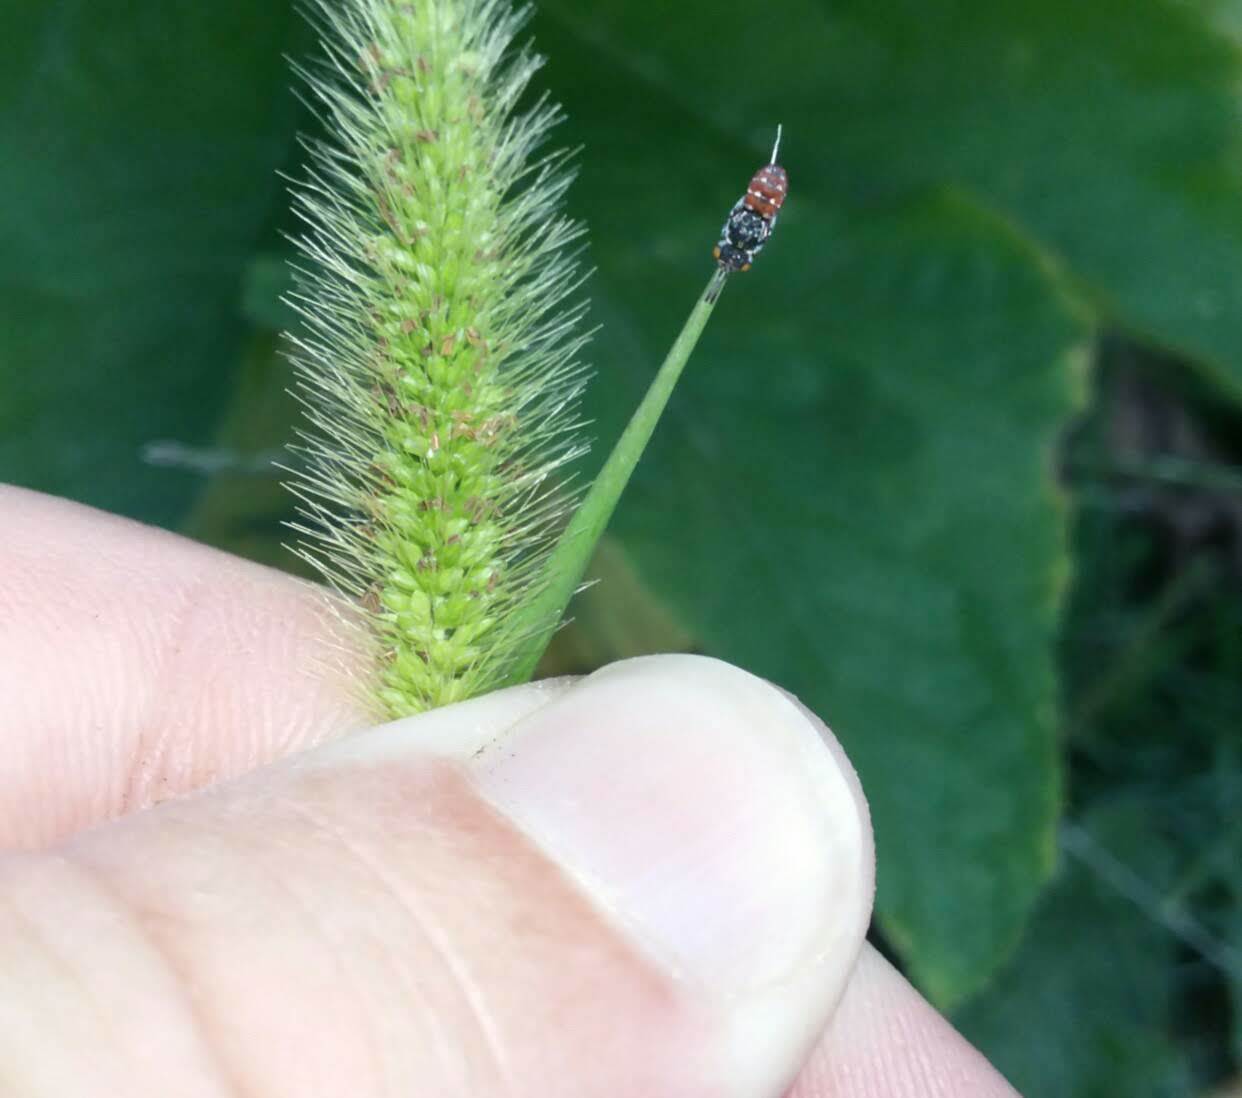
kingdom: Animalia
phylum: Arthropoda
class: Insecta
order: Hymenoptera
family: Apidae
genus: Holcopasites
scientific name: Holcopasites calliopsidis
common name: Calliopsis cuckoo nomad bee
